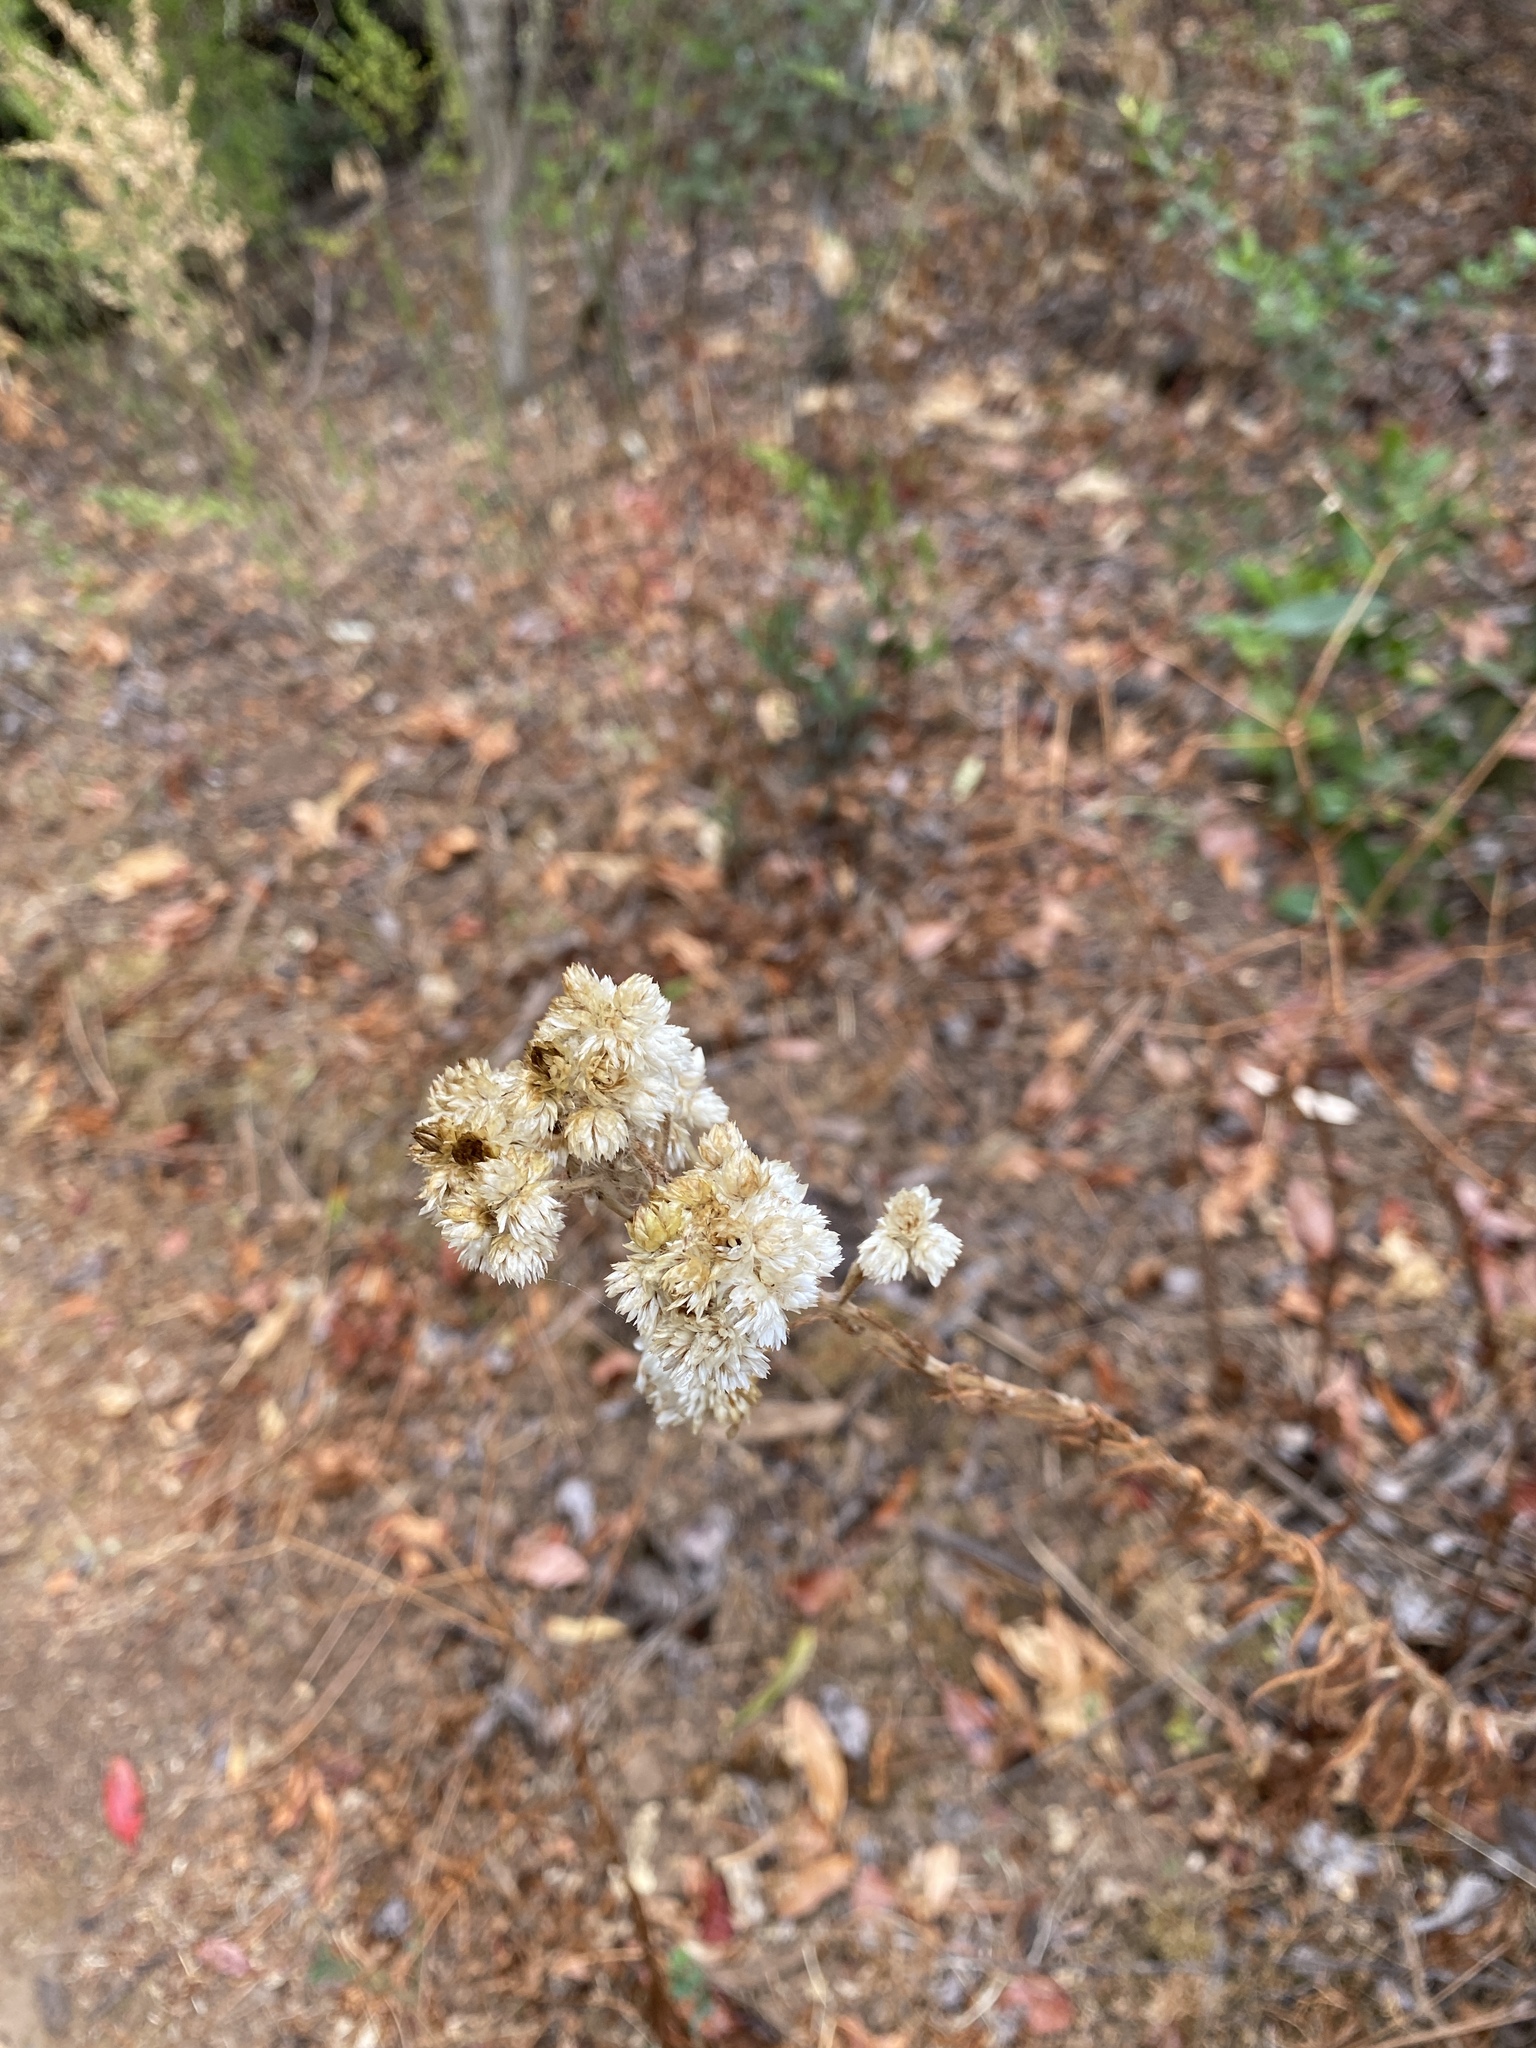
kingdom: Plantae
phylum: Tracheophyta
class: Magnoliopsida
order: Asterales
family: Asteraceae
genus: Pseudognaphalium
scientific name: Pseudognaphalium californicum
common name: California rabbit-tobacco
